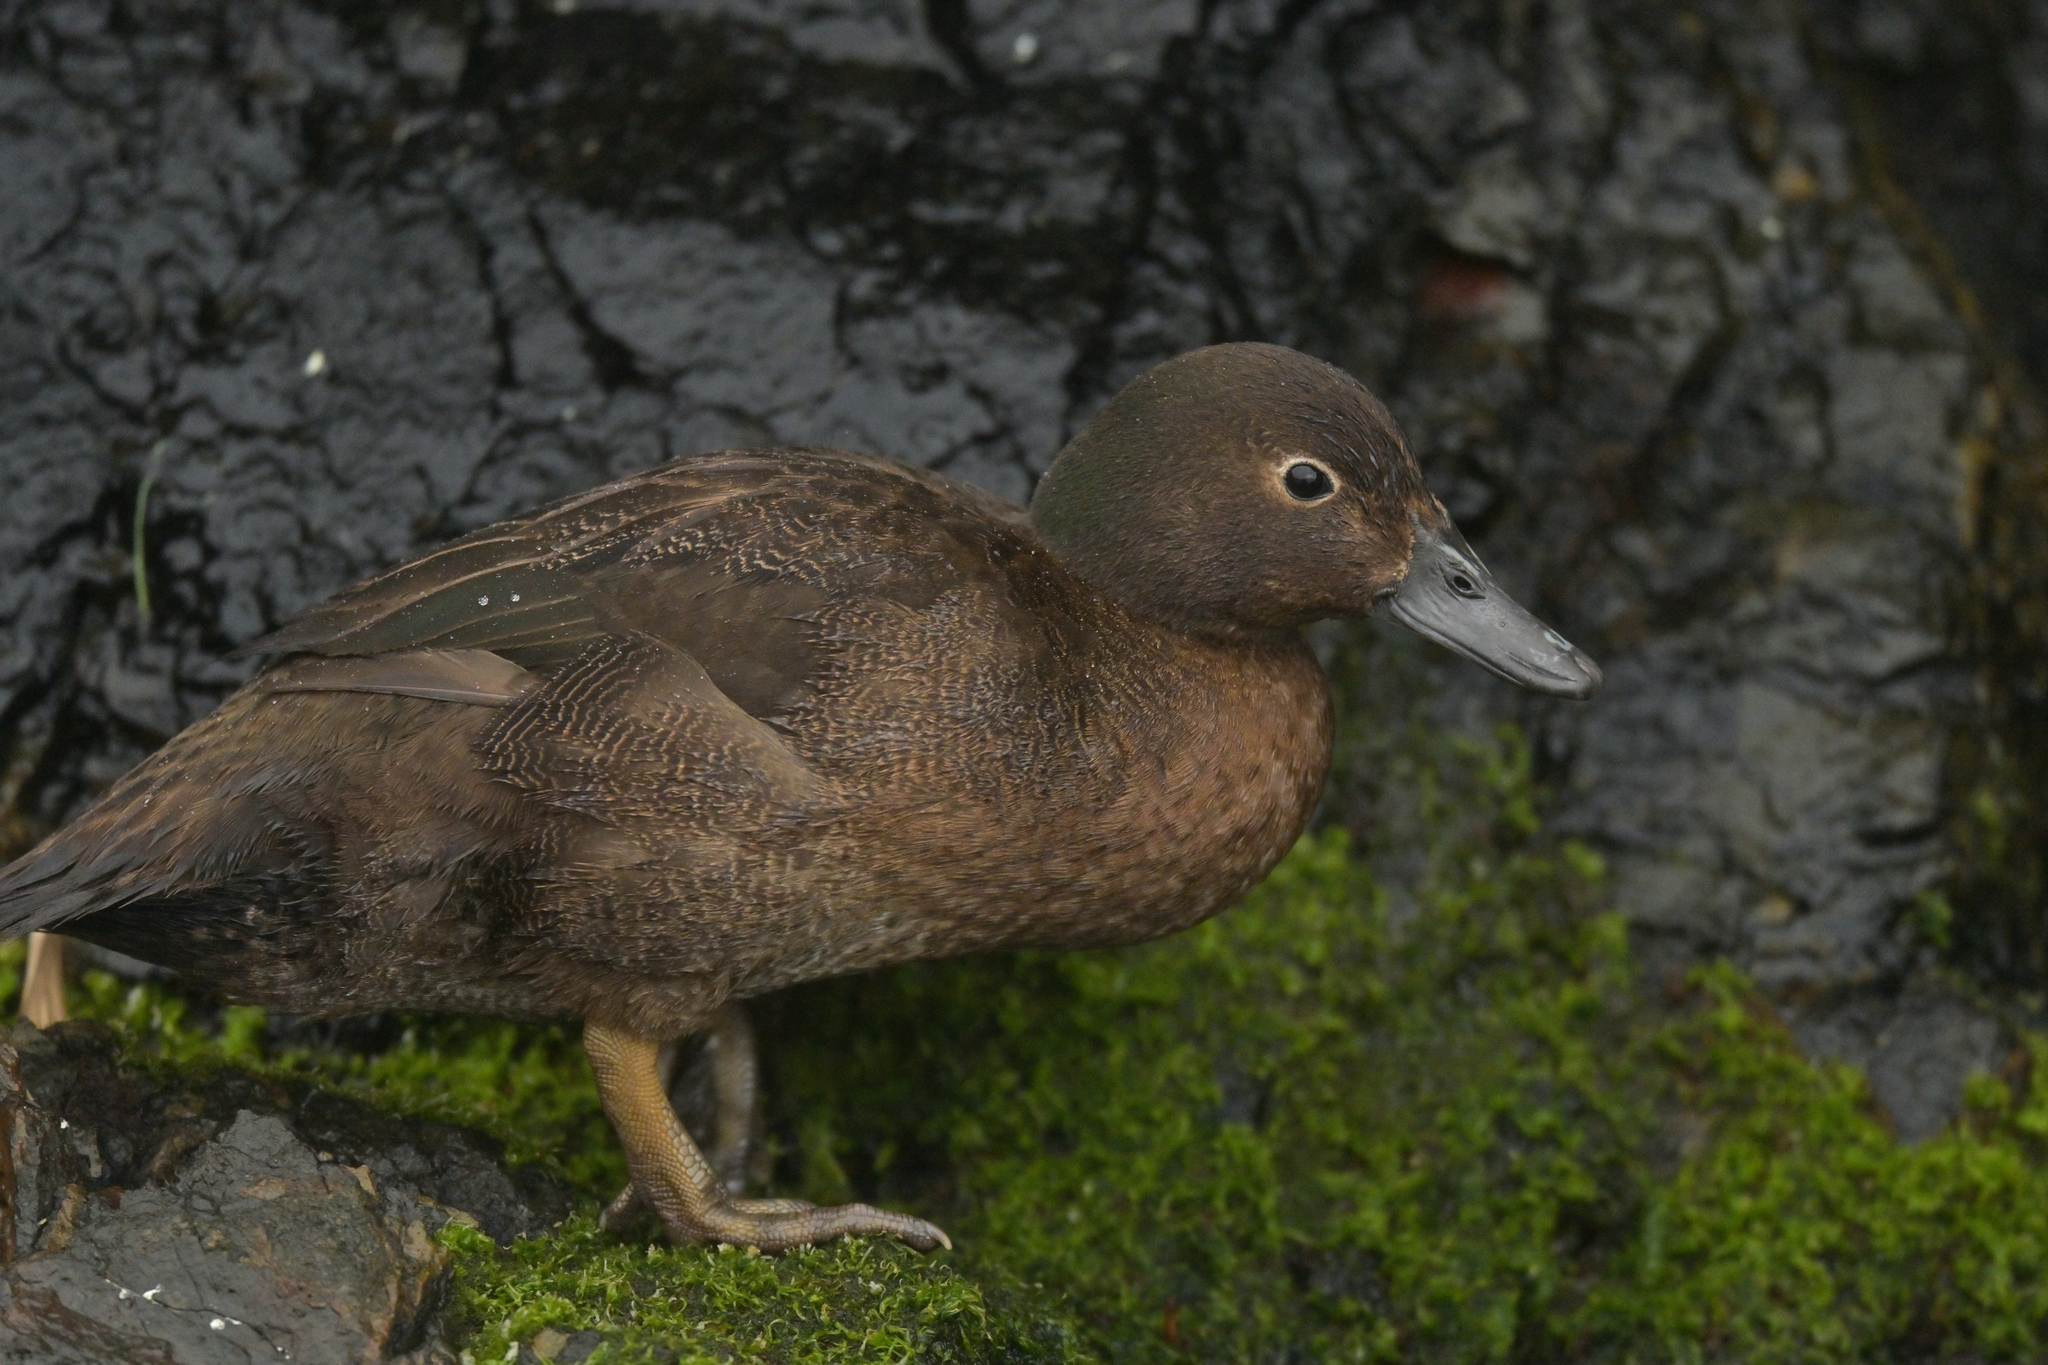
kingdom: Animalia
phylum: Chordata
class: Aves
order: Anseriformes
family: Anatidae
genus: Anas
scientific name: Anas aucklandica
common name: Auckland teal
